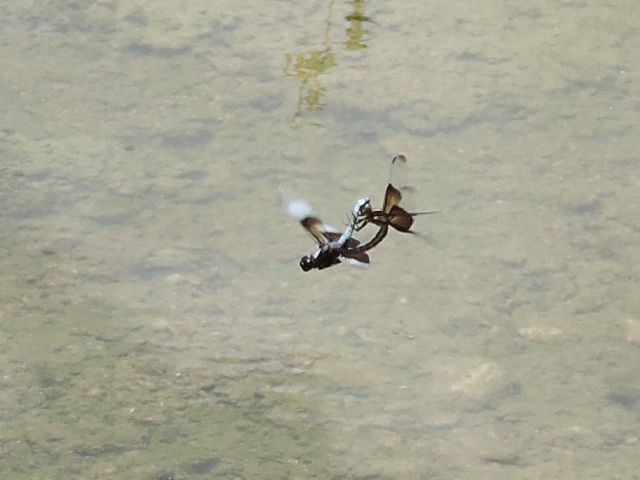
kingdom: Animalia
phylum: Arthropoda
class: Insecta
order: Odonata
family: Libellulidae
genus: Libellula
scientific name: Libellula luctuosa
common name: Widow skimmer
